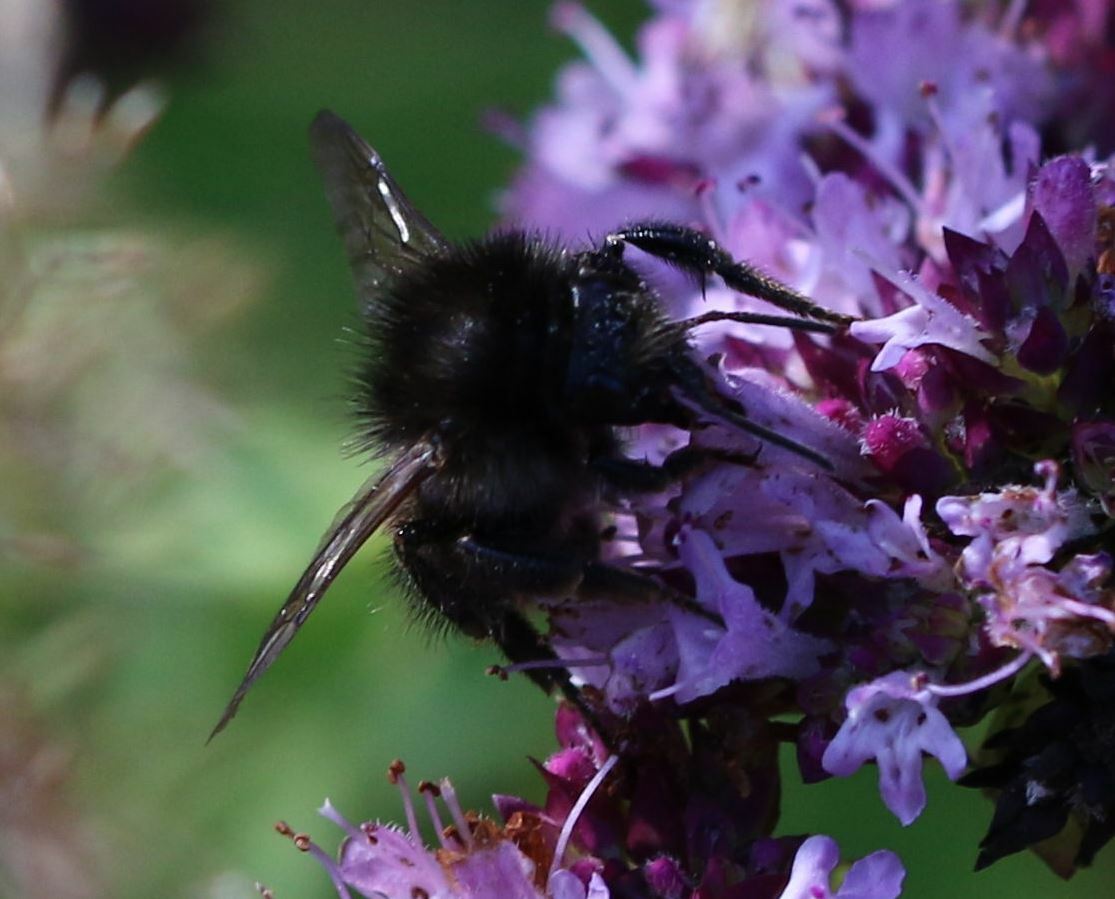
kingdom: Animalia
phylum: Arthropoda
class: Insecta
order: Hymenoptera
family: Apidae
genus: Bombus
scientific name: Bombus humilis
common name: Brown-banded carder-bee
